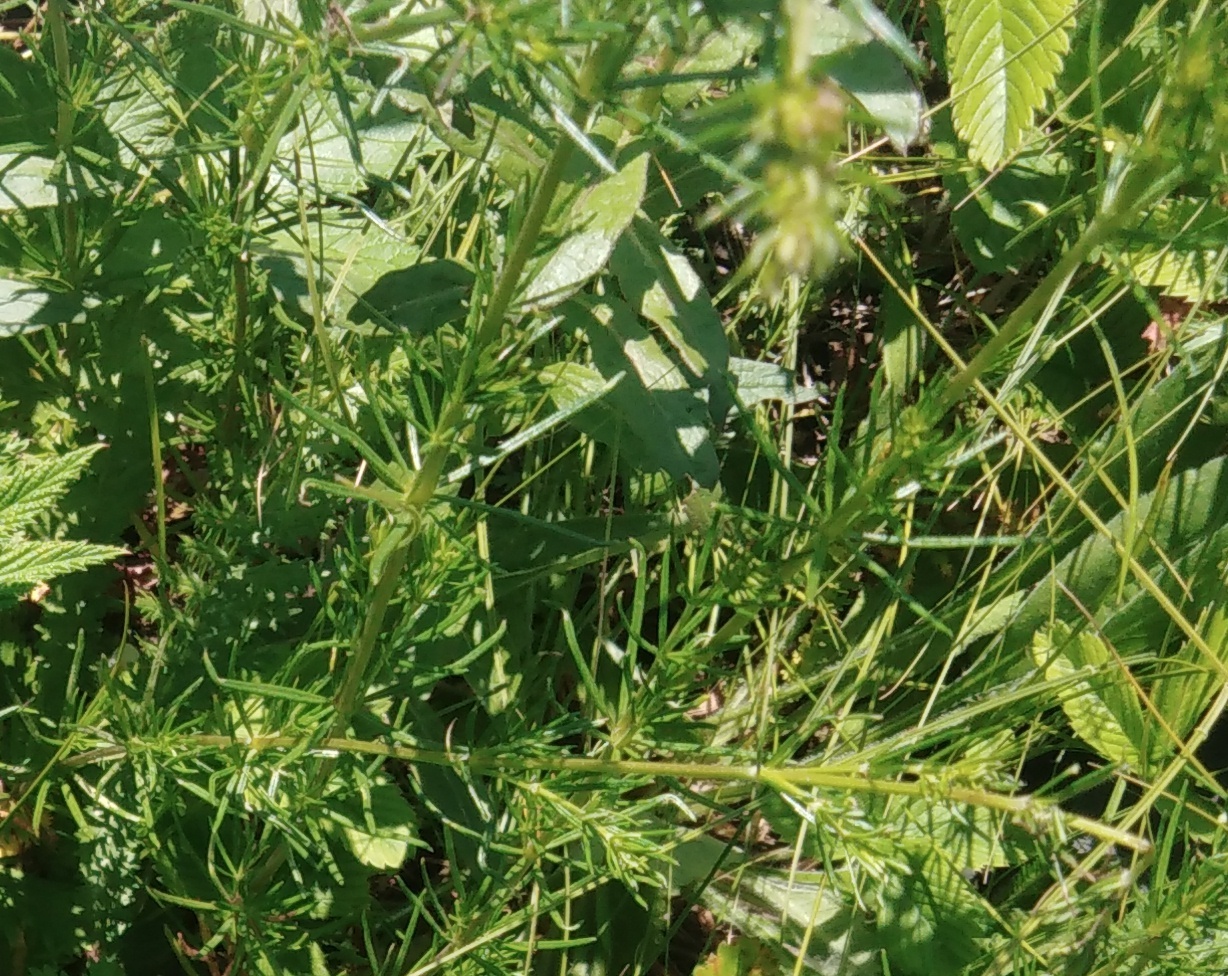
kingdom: Plantae
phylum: Tracheophyta
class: Magnoliopsida
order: Gentianales
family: Rubiaceae
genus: Galium
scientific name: Galium verum
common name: Lady's bedstraw
